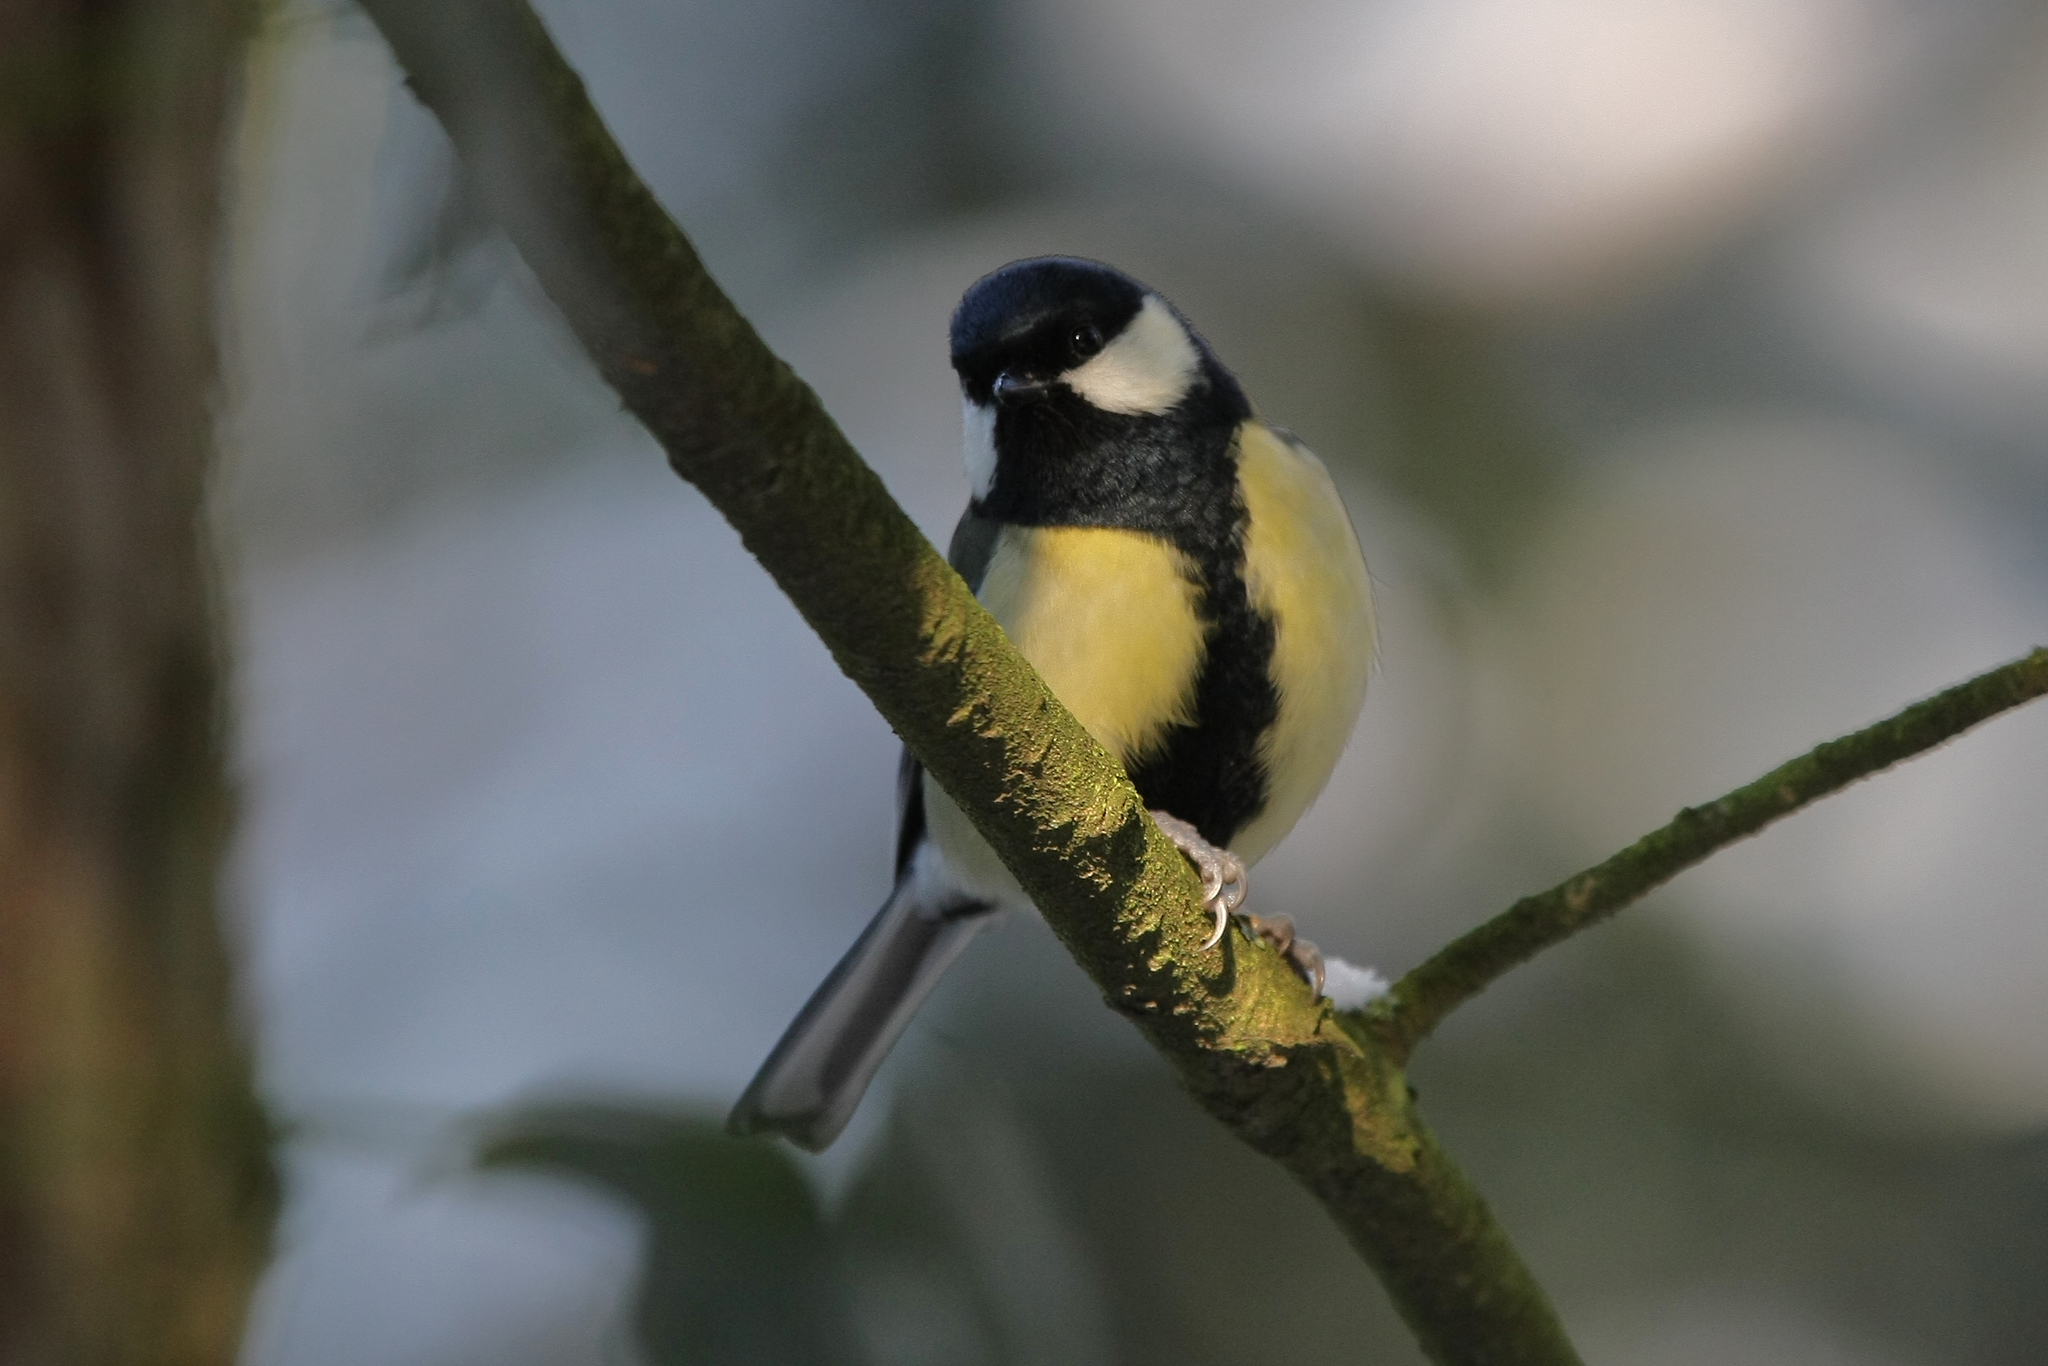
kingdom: Animalia
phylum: Chordata
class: Aves
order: Passeriformes
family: Paridae
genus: Parus
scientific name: Parus major
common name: Great tit
